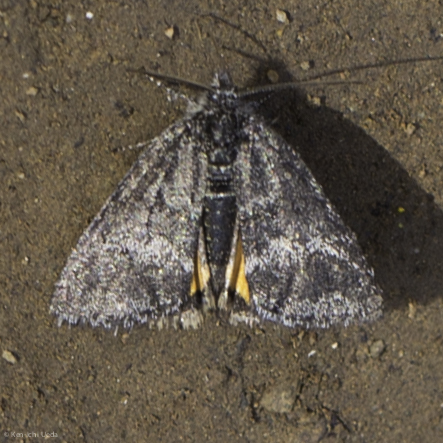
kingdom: Animalia
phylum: Arthropoda
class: Insecta
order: Lepidoptera
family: Noctuidae
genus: Annaphila
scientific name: Annaphila arvalis
